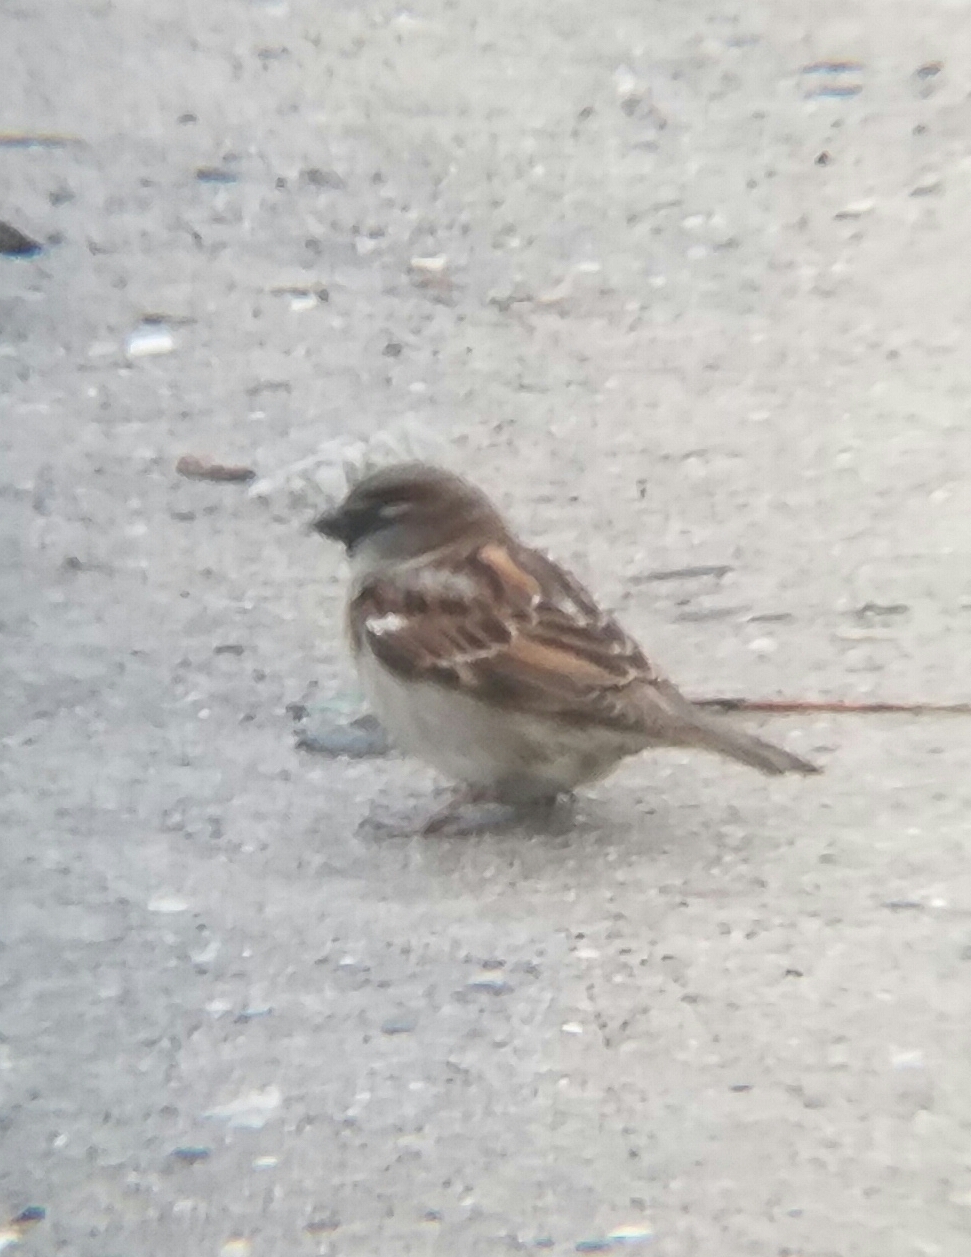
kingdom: Animalia
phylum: Chordata
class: Aves
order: Passeriformes
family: Passeridae
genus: Passer
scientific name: Passer domesticus
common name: House sparrow
